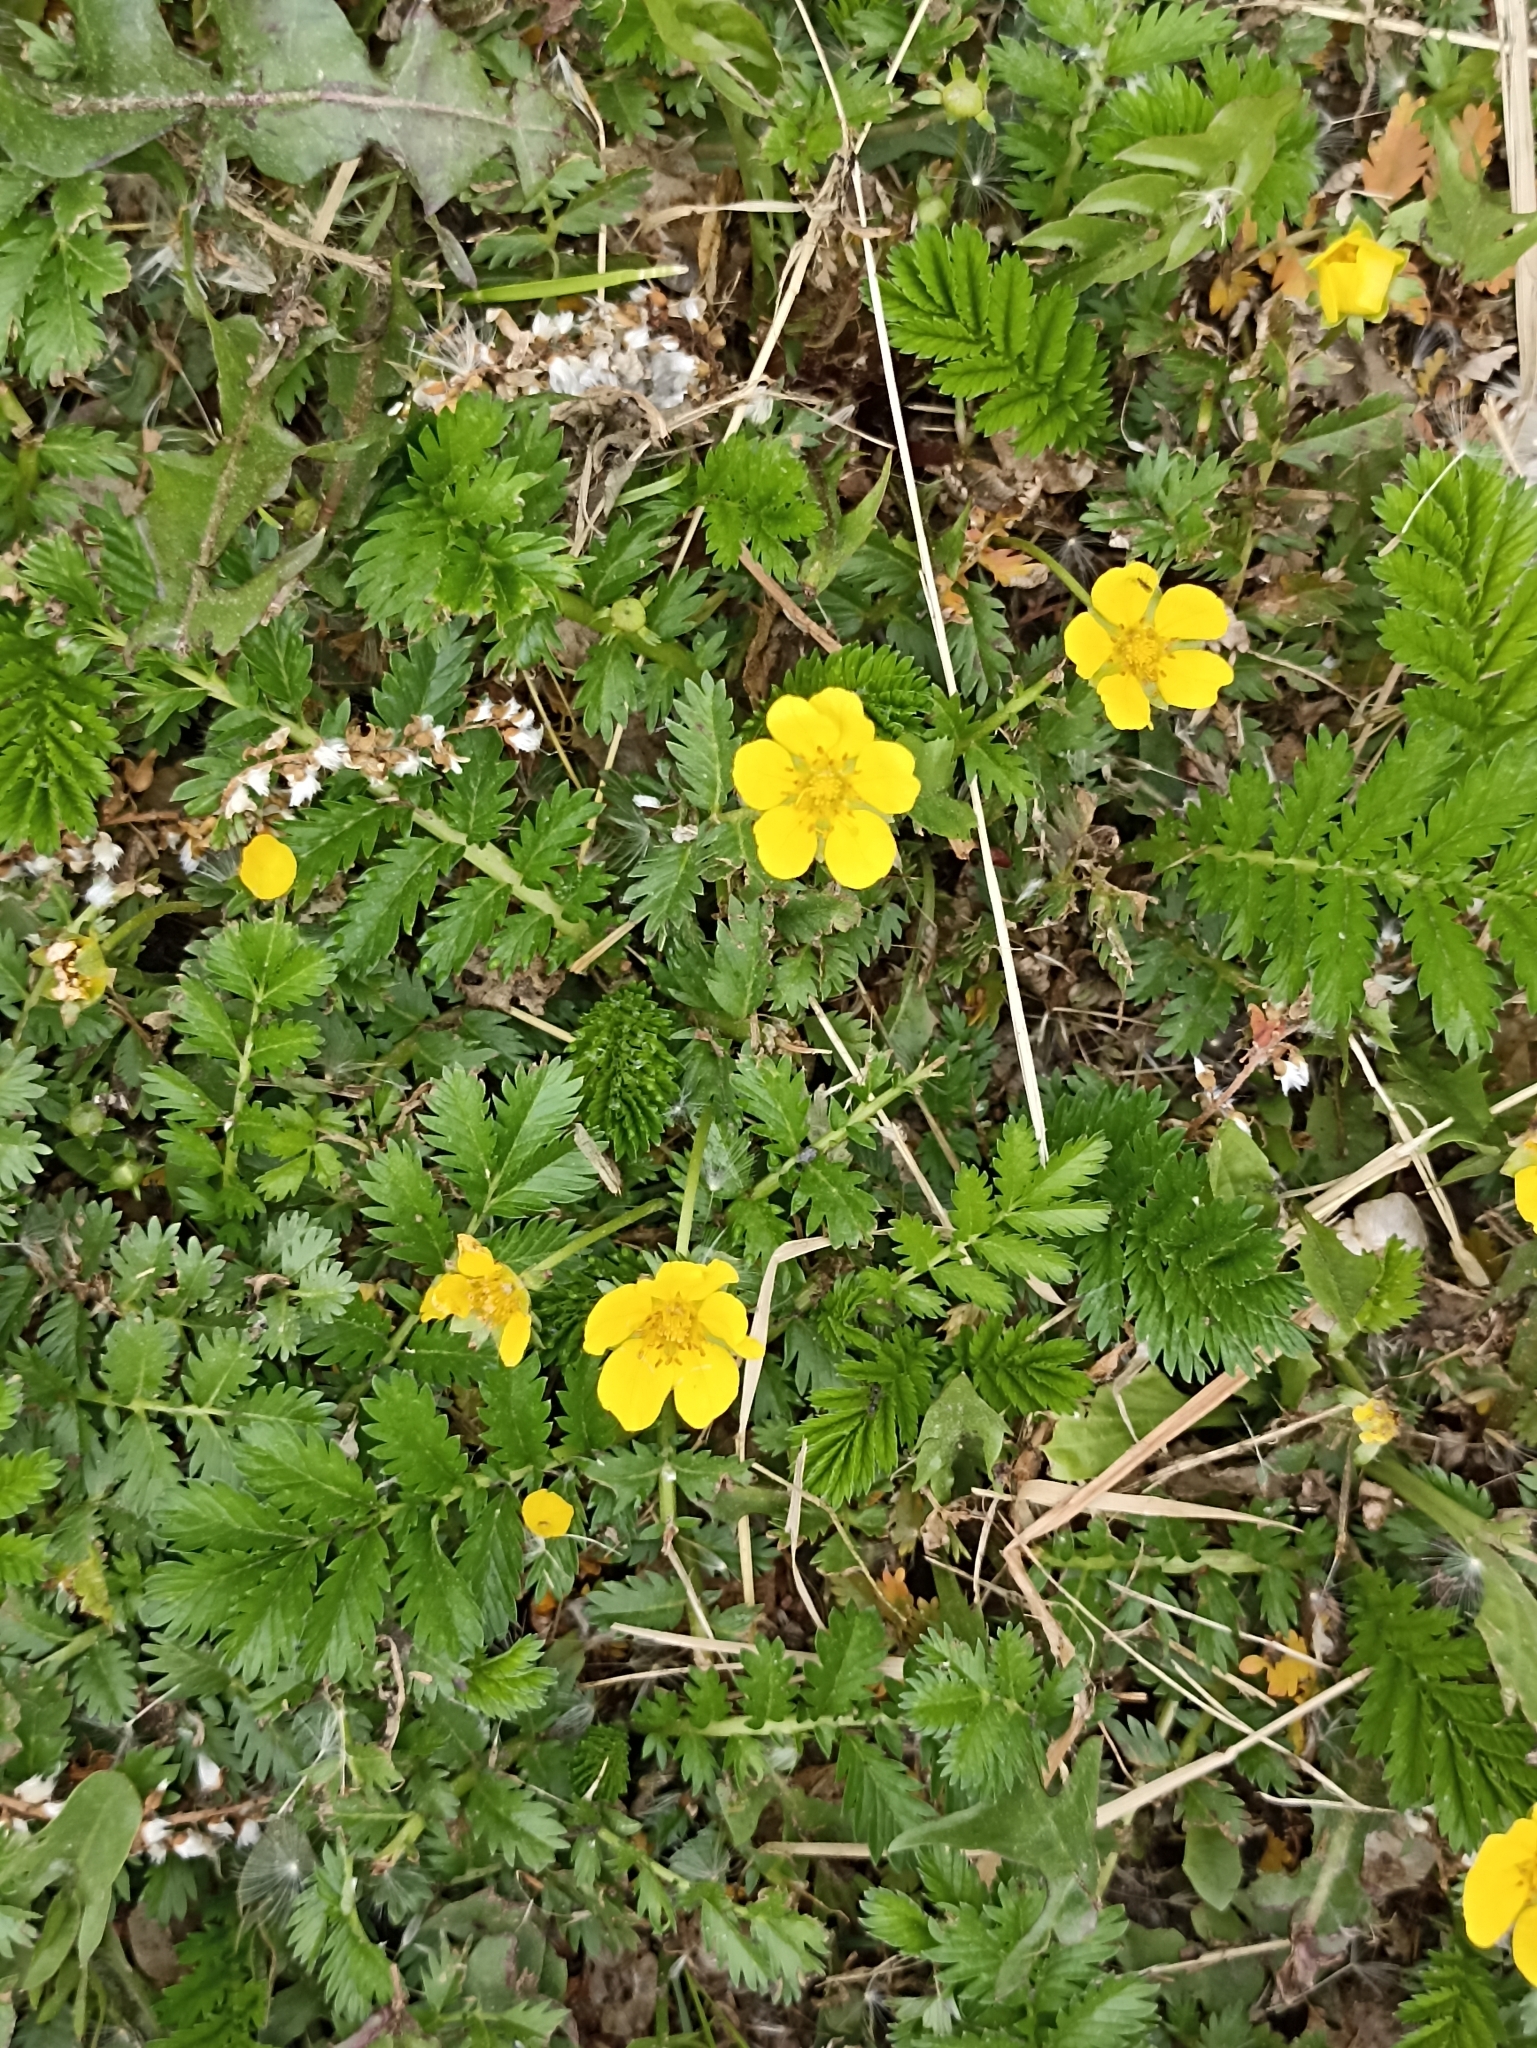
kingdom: Plantae
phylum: Tracheophyta
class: Magnoliopsida
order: Rosales
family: Rosaceae
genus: Argentina
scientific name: Argentina anserina
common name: Common silverweed
